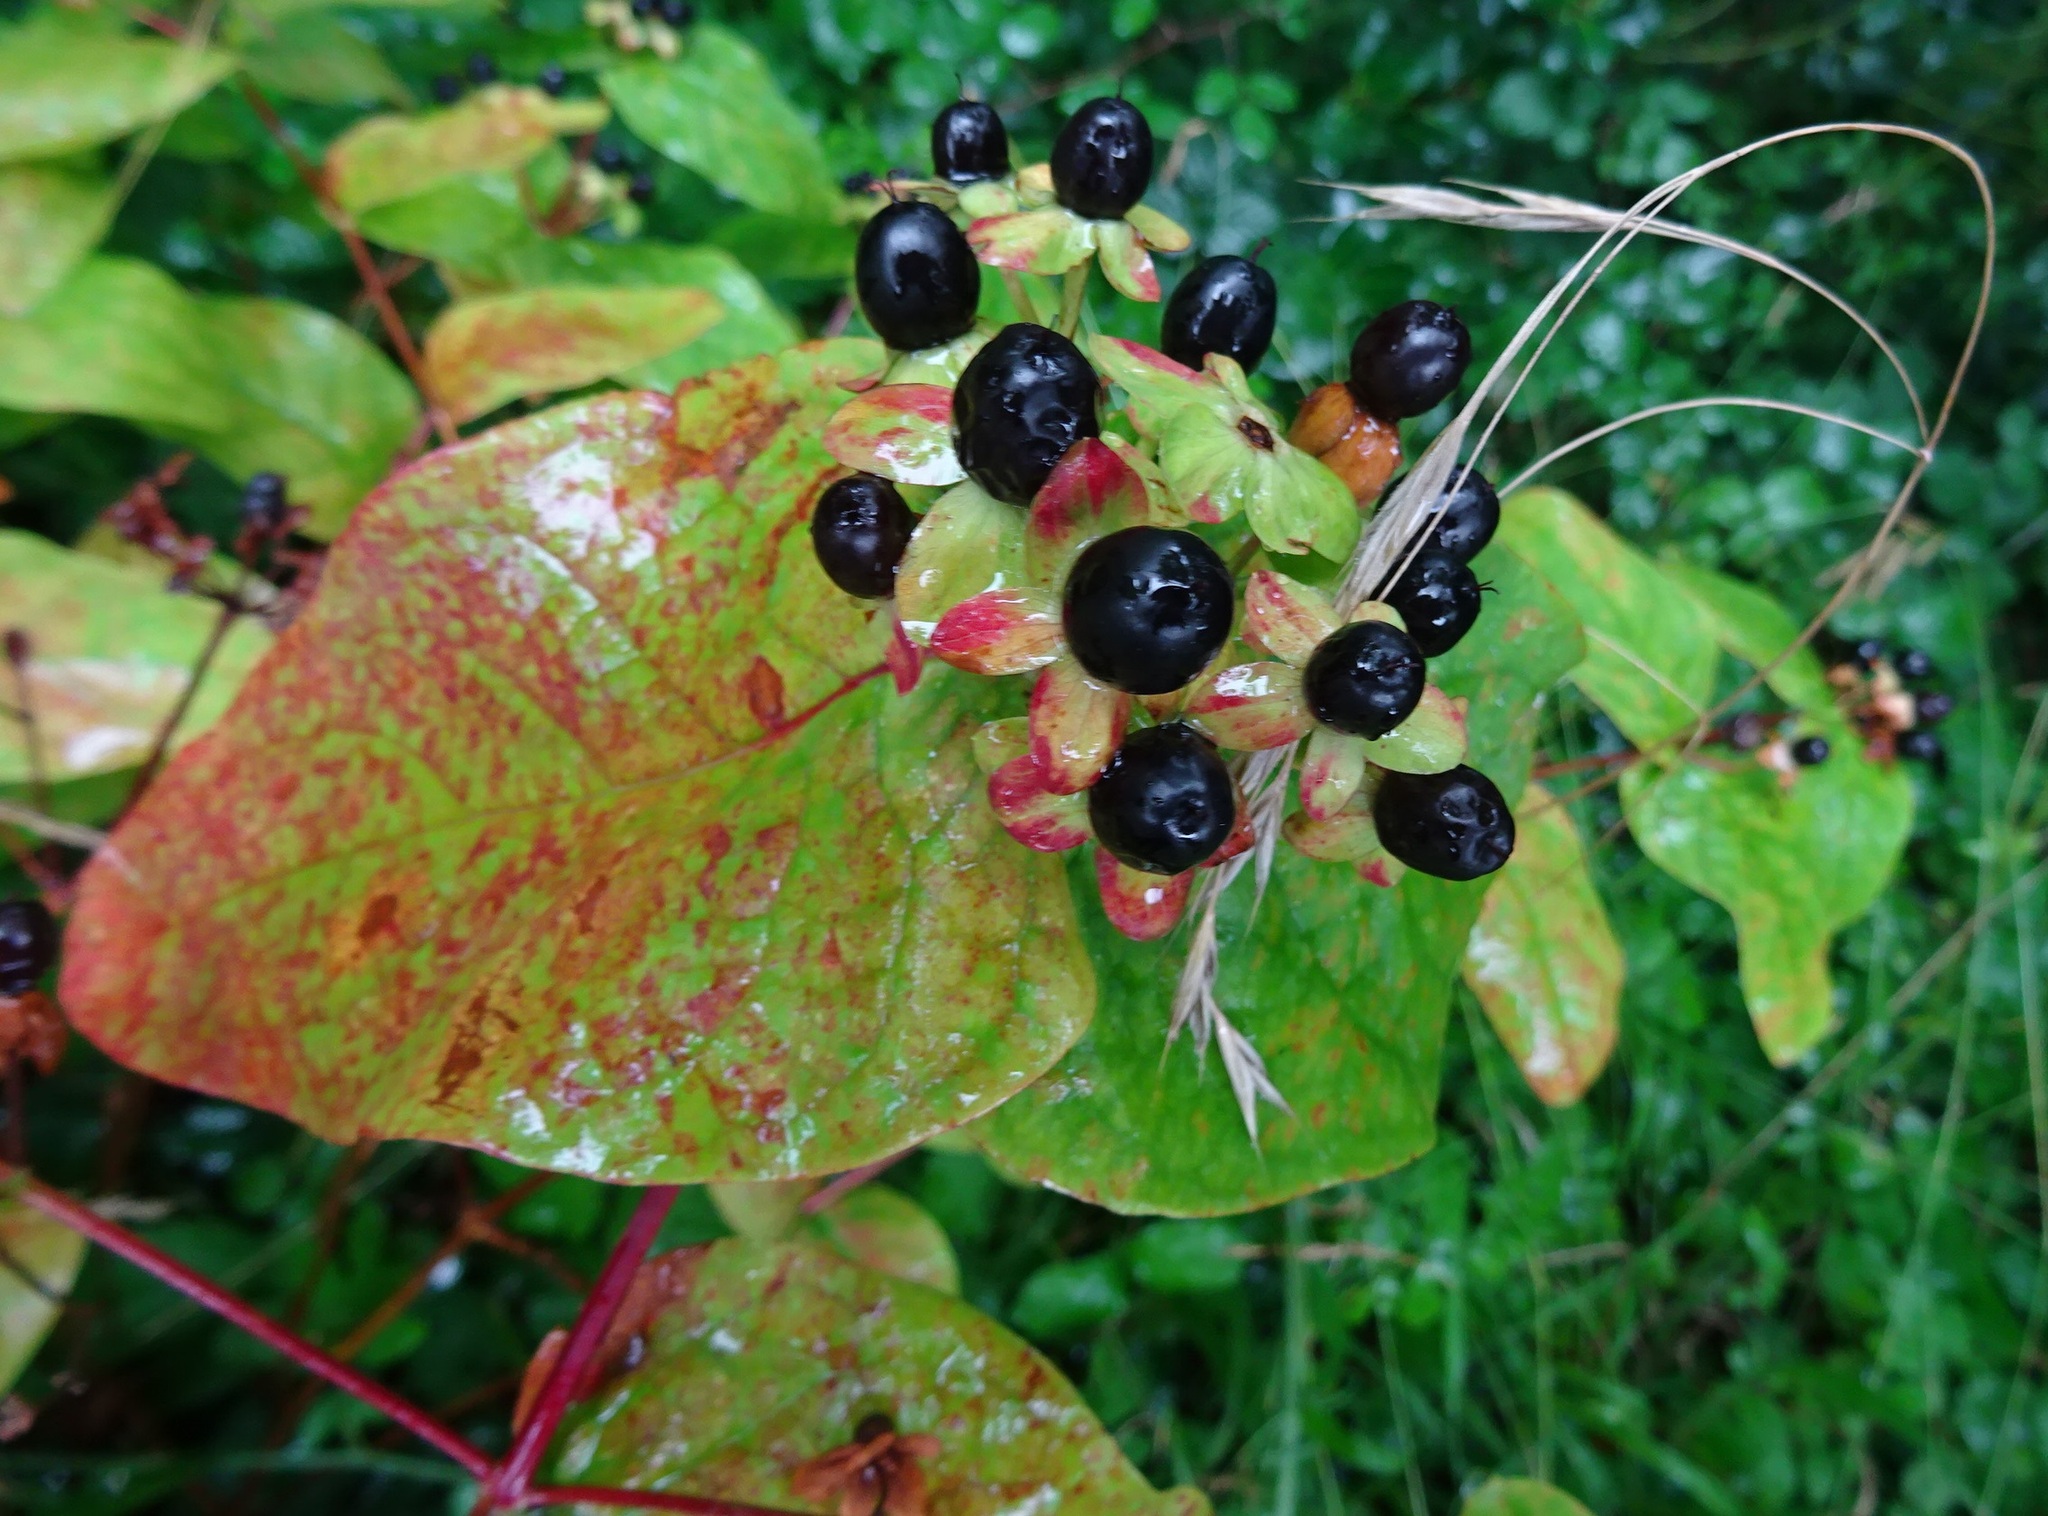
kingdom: Plantae
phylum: Tracheophyta
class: Magnoliopsida
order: Malpighiales
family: Hypericaceae
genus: Hypericum
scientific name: Hypericum androsaemum
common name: Sweet-amber
